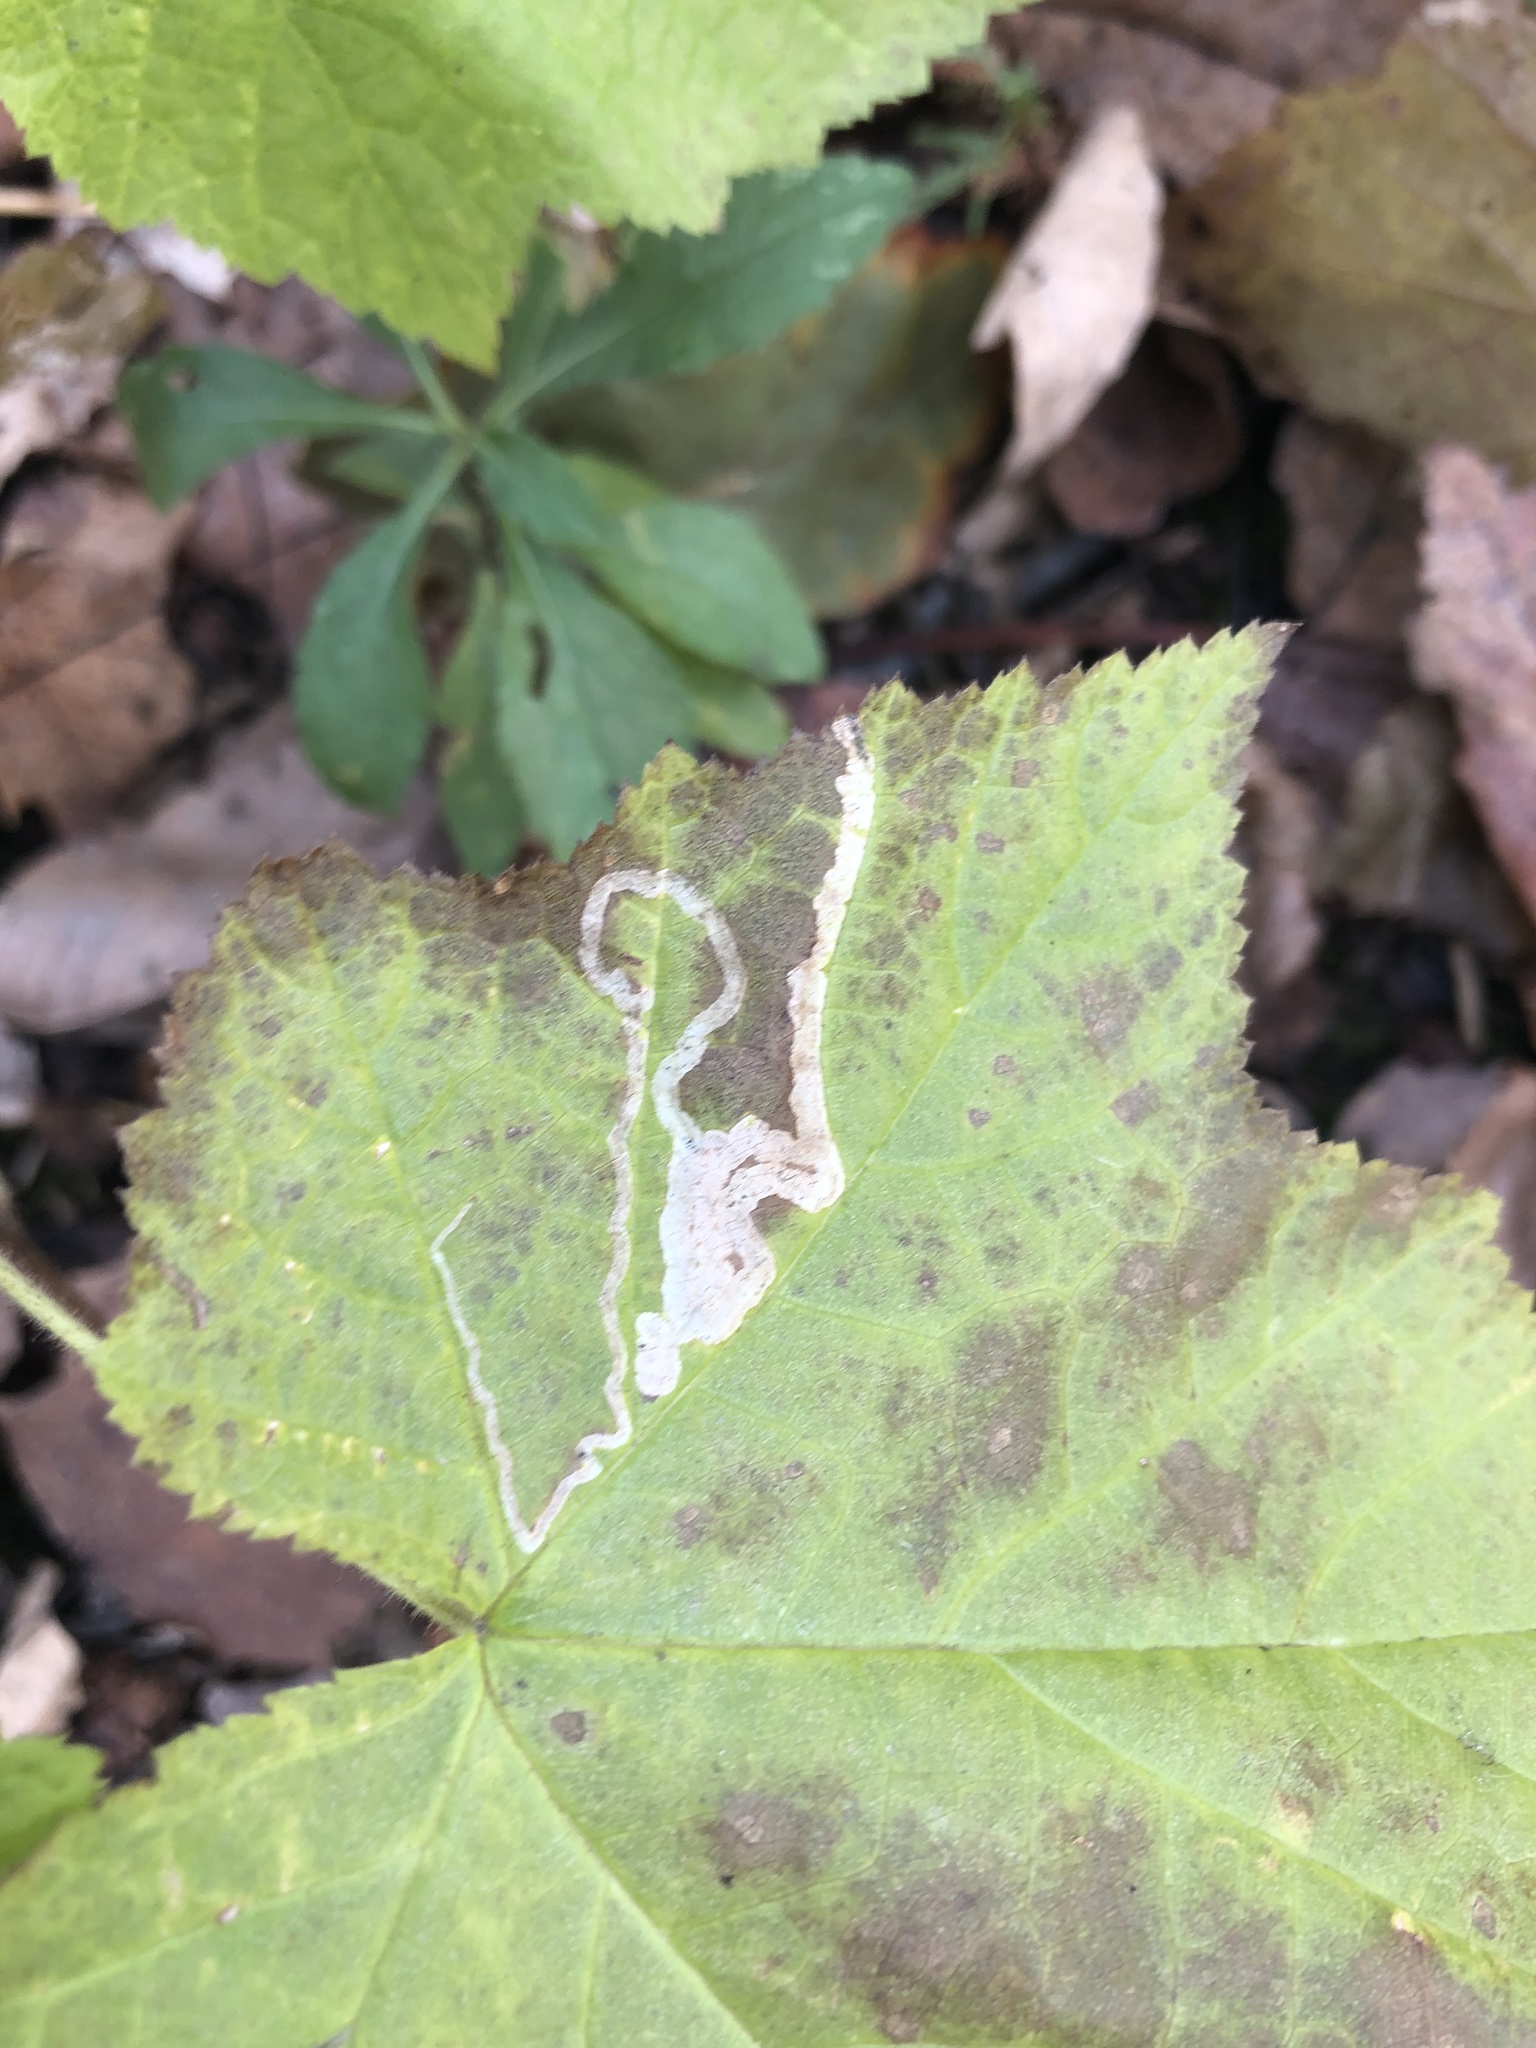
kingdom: Animalia
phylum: Arthropoda
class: Insecta
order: Diptera
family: Agromyzidae
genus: Agromyza
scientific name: Agromyza vockerothi
